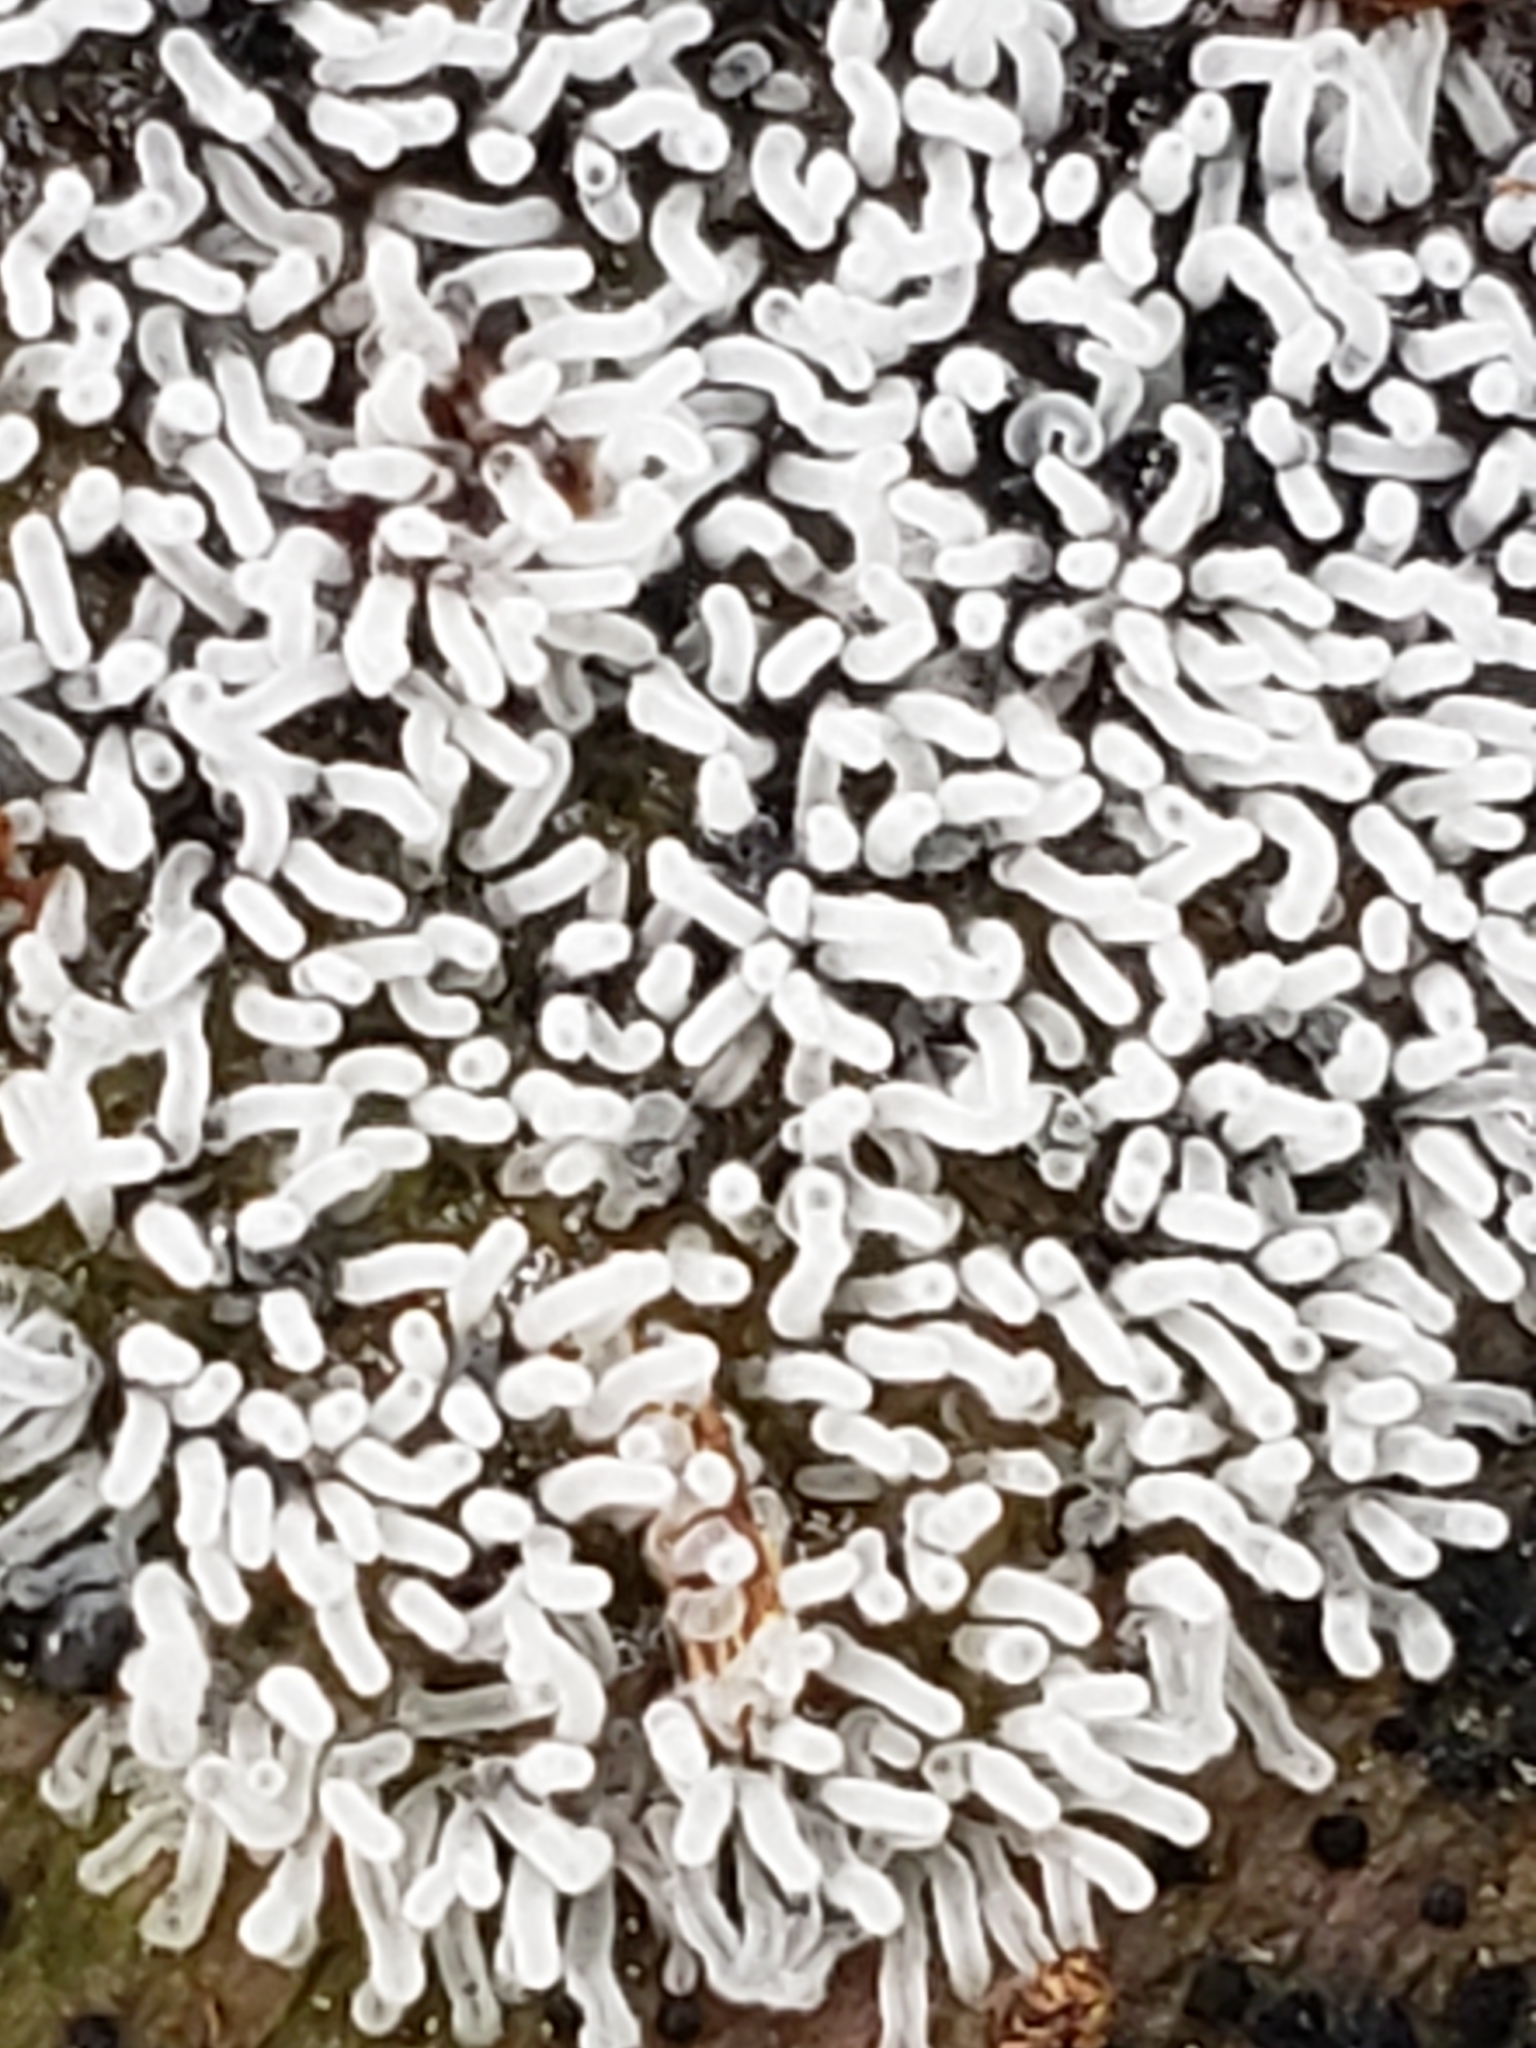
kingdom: Protozoa
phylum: Mycetozoa
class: Protosteliomycetes
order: Ceratiomyxales
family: Ceratiomyxaceae
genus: Ceratiomyxa
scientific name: Ceratiomyxa fruticulosa
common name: Honeycomb coral slime mold
